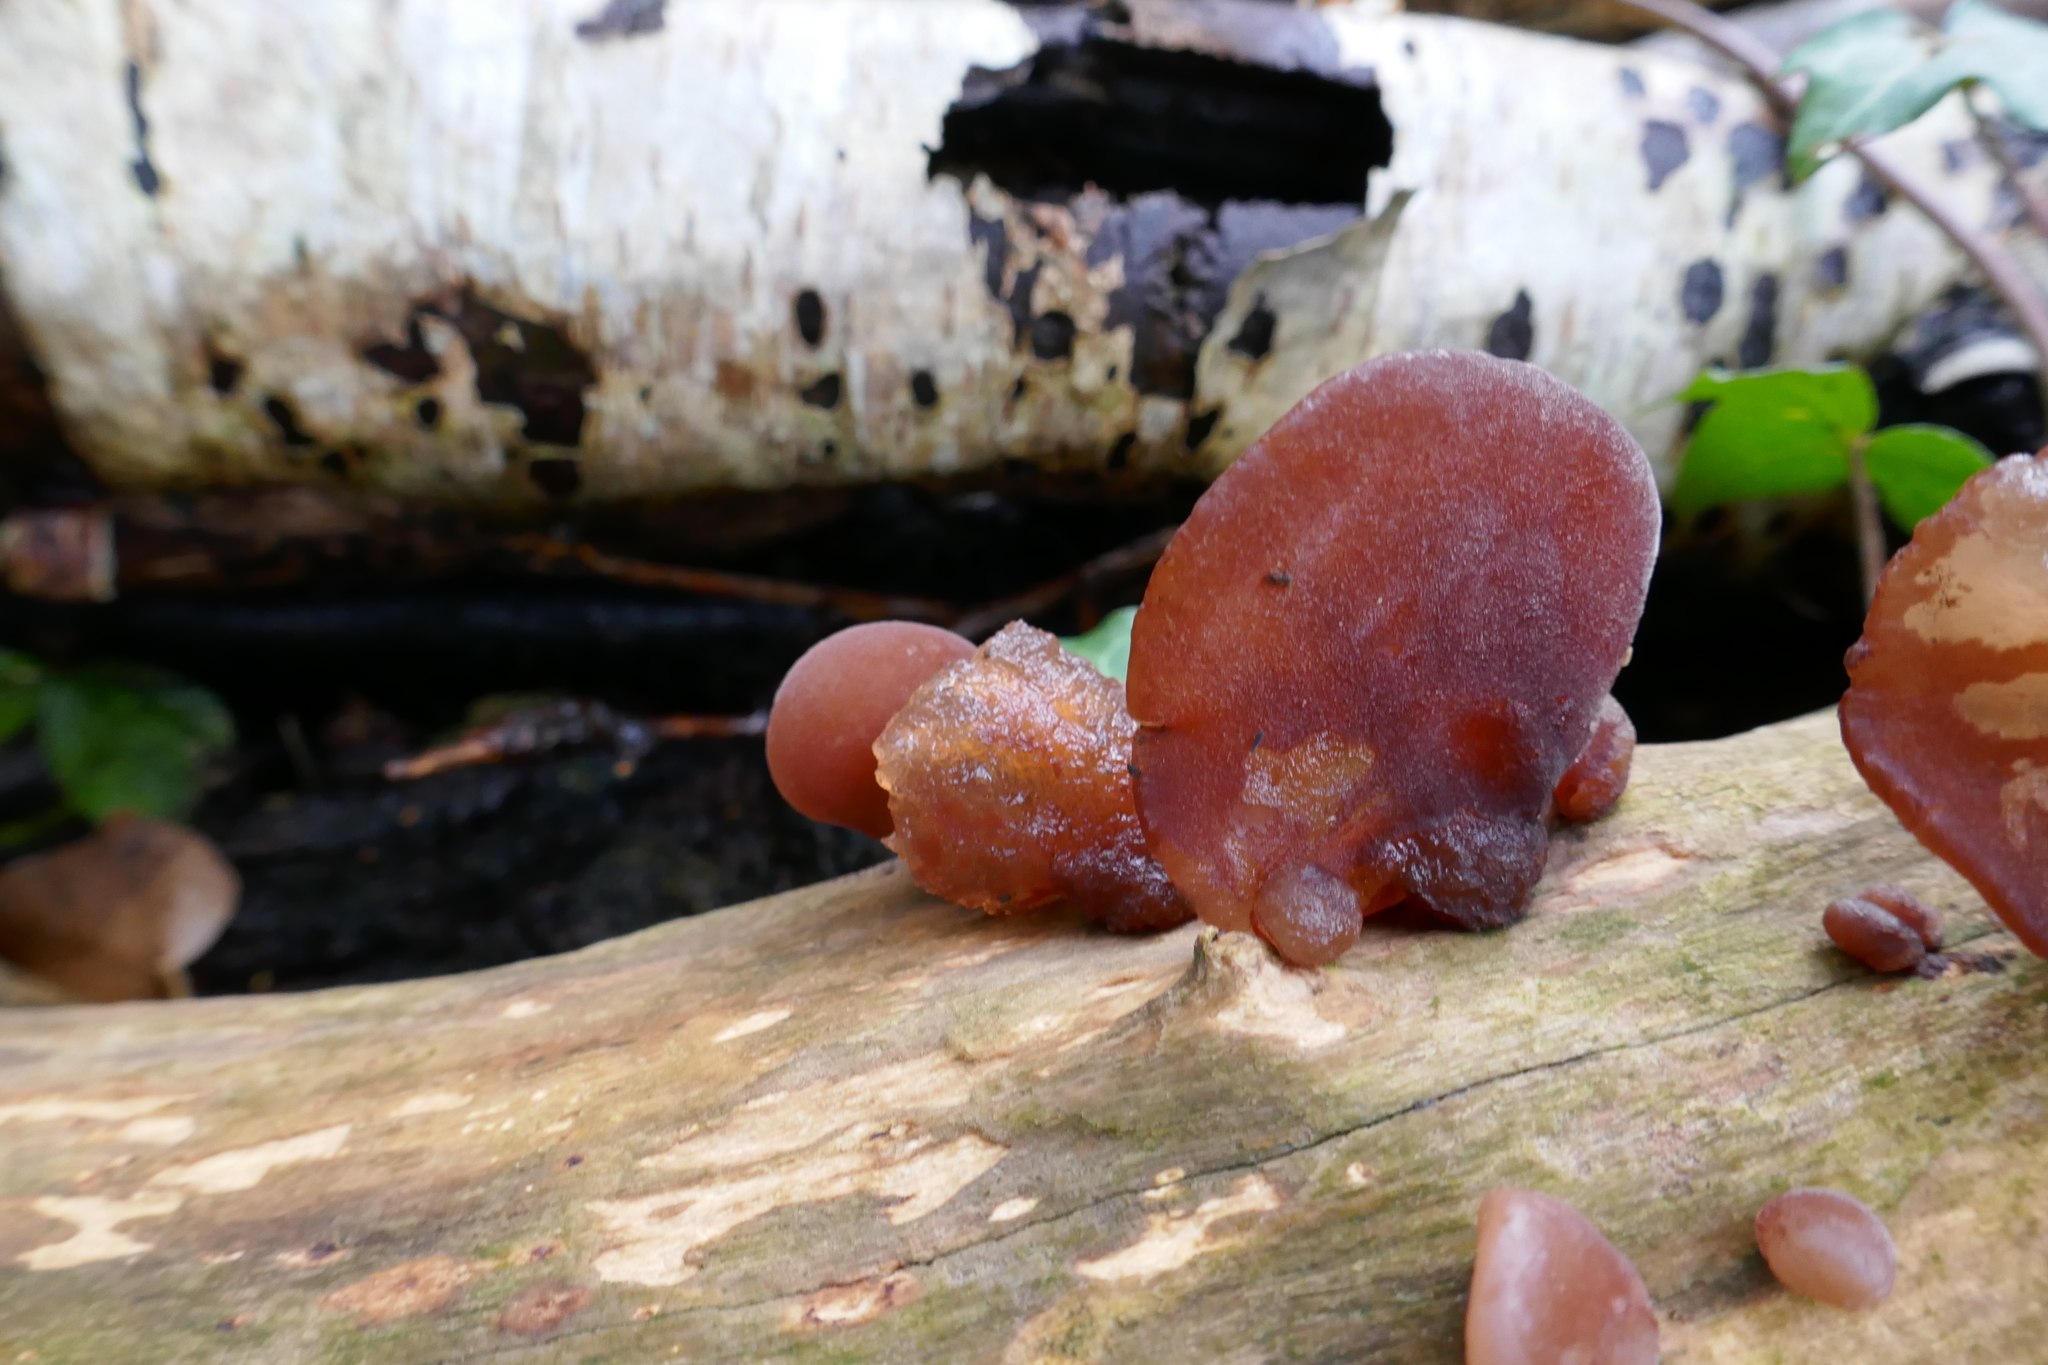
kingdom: Fungi
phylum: Basidiomycota
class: Agaricomycetes
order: Auriculariales
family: Auriculariaceae
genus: Auricularia
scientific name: Auricularia auricula-judae
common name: Jelly ear
